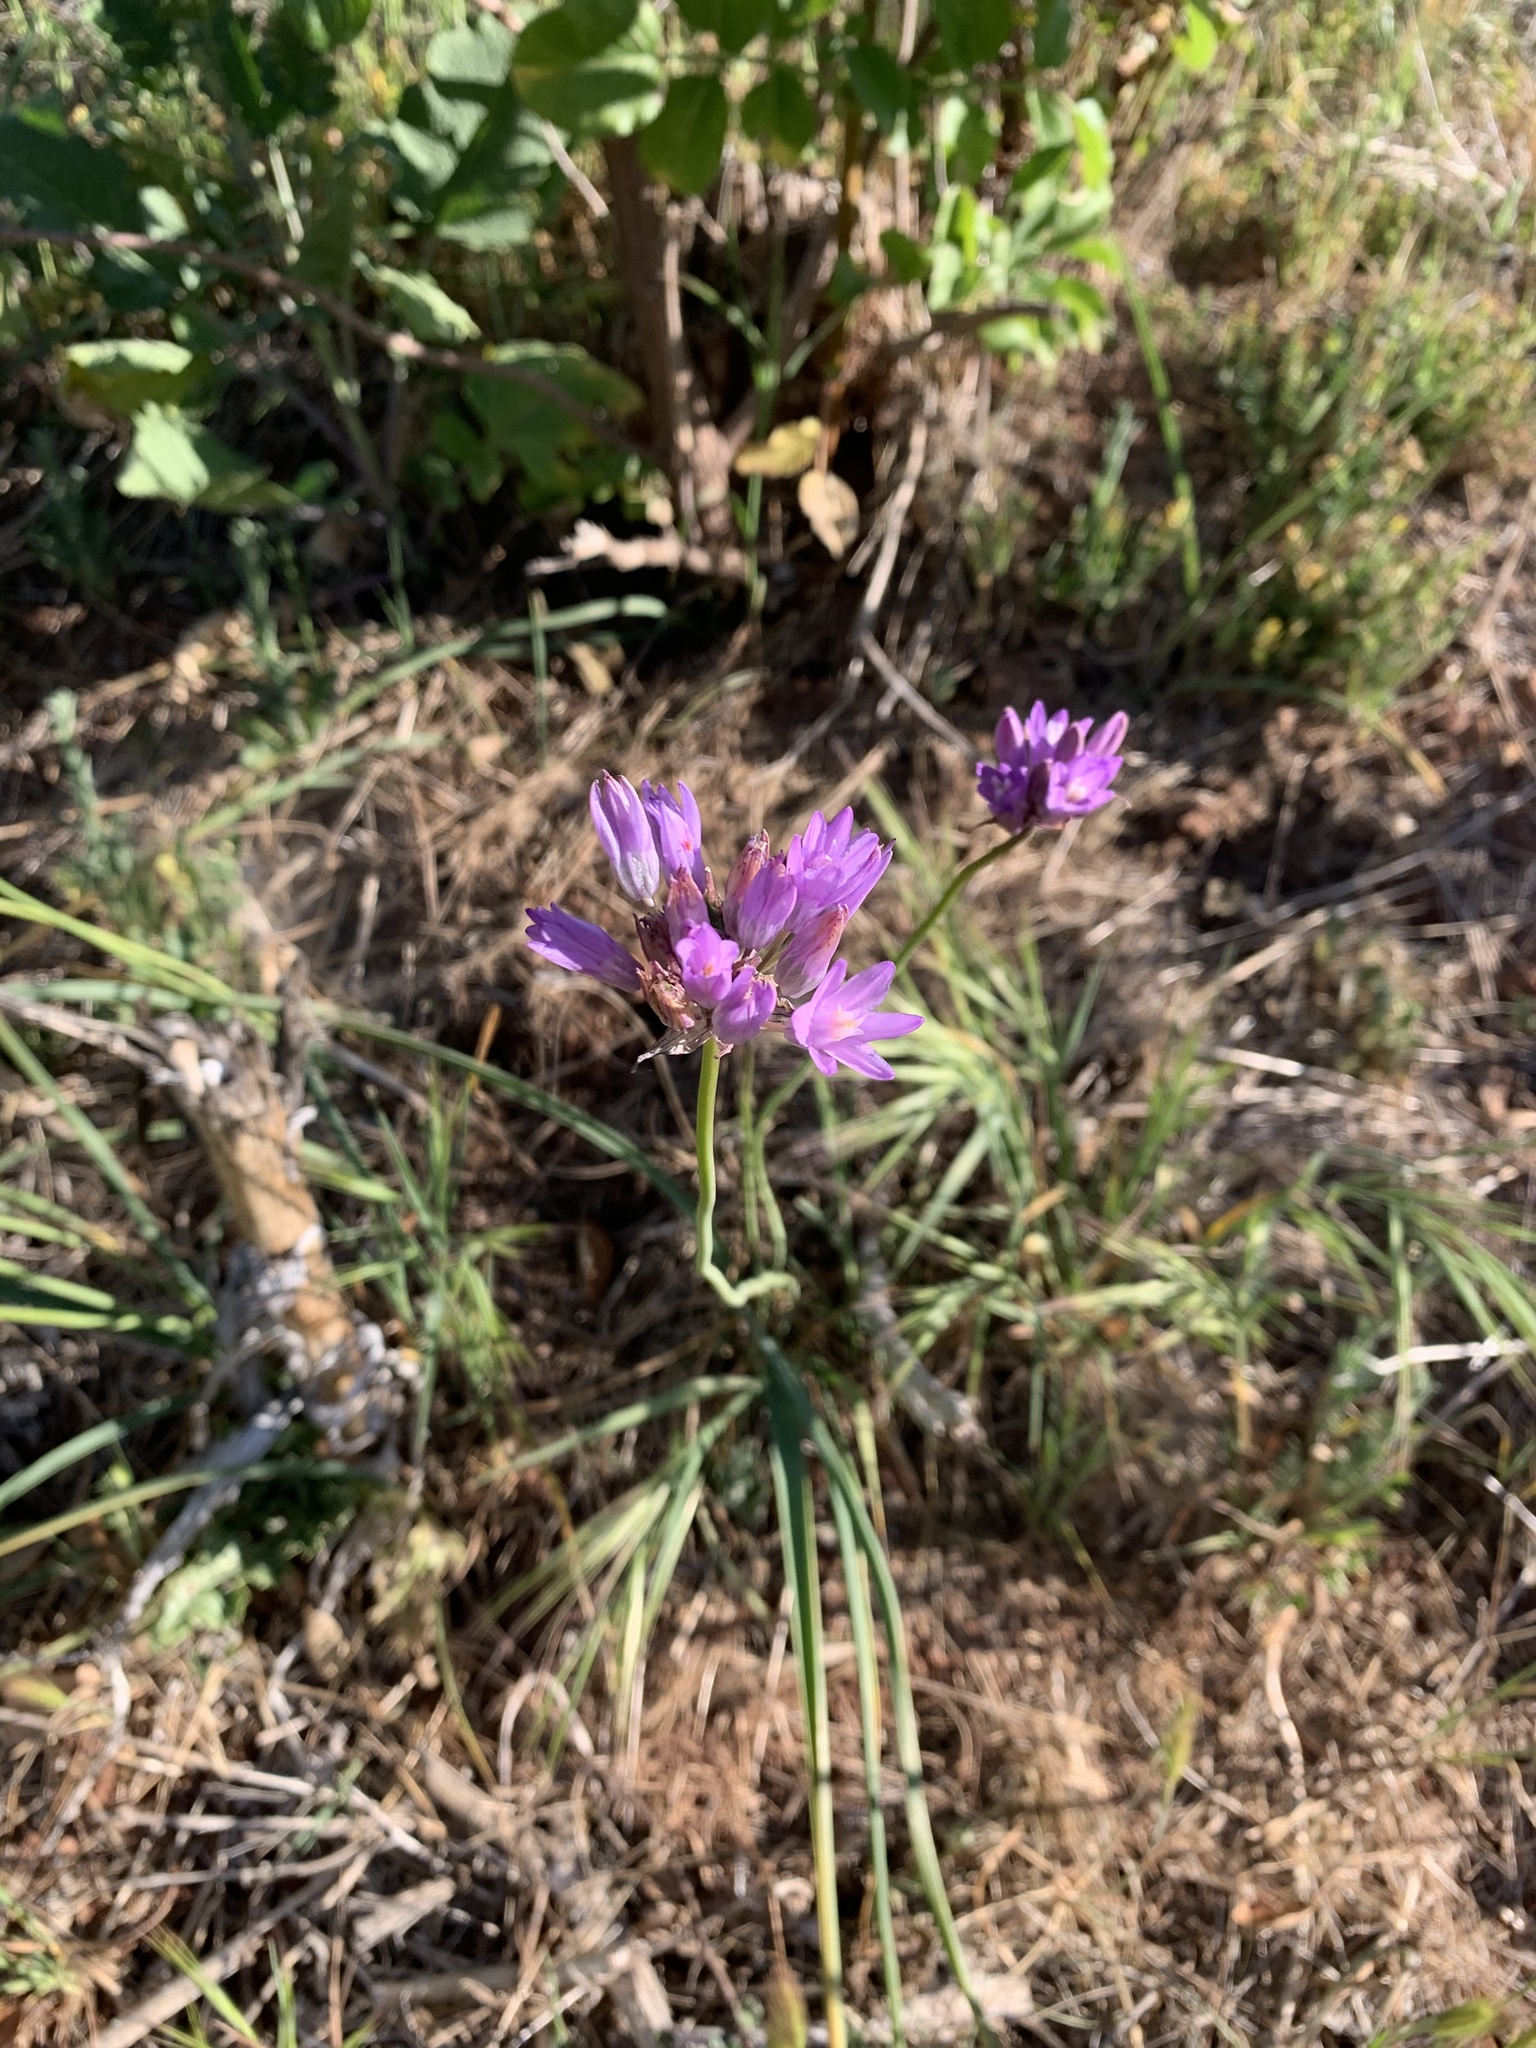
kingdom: Plantae
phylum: Tracheophyta
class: Liliopsida
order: Asparagales
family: Asparagaceae
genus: Dipterostemon
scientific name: Dipterostemon capitatus
